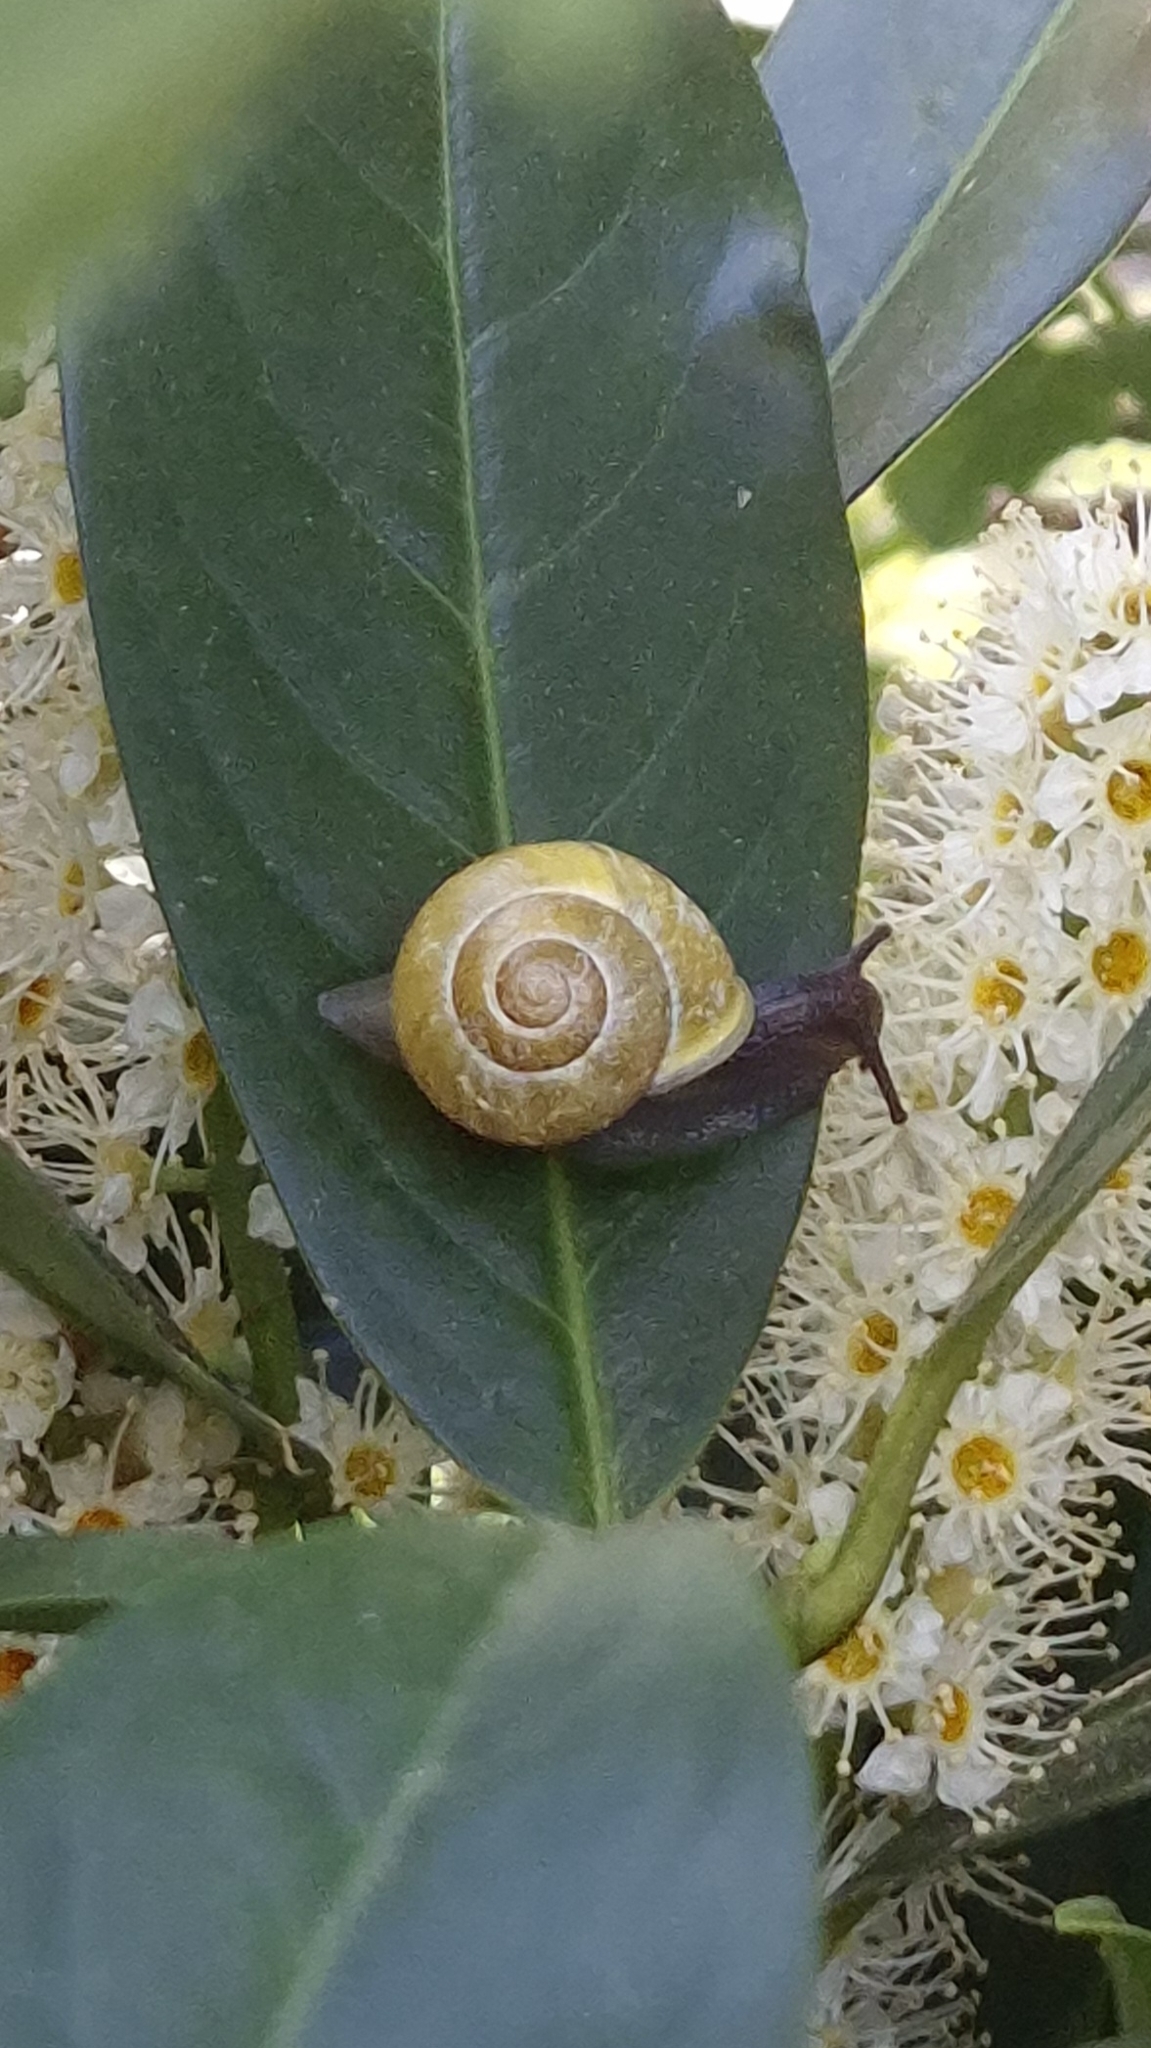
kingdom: Animalia
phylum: Mollusca
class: Gastropoda
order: Stylommatophora
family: Helicidae
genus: Cepaea
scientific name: Cepaea hortensis
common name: White-lip gardensnail
